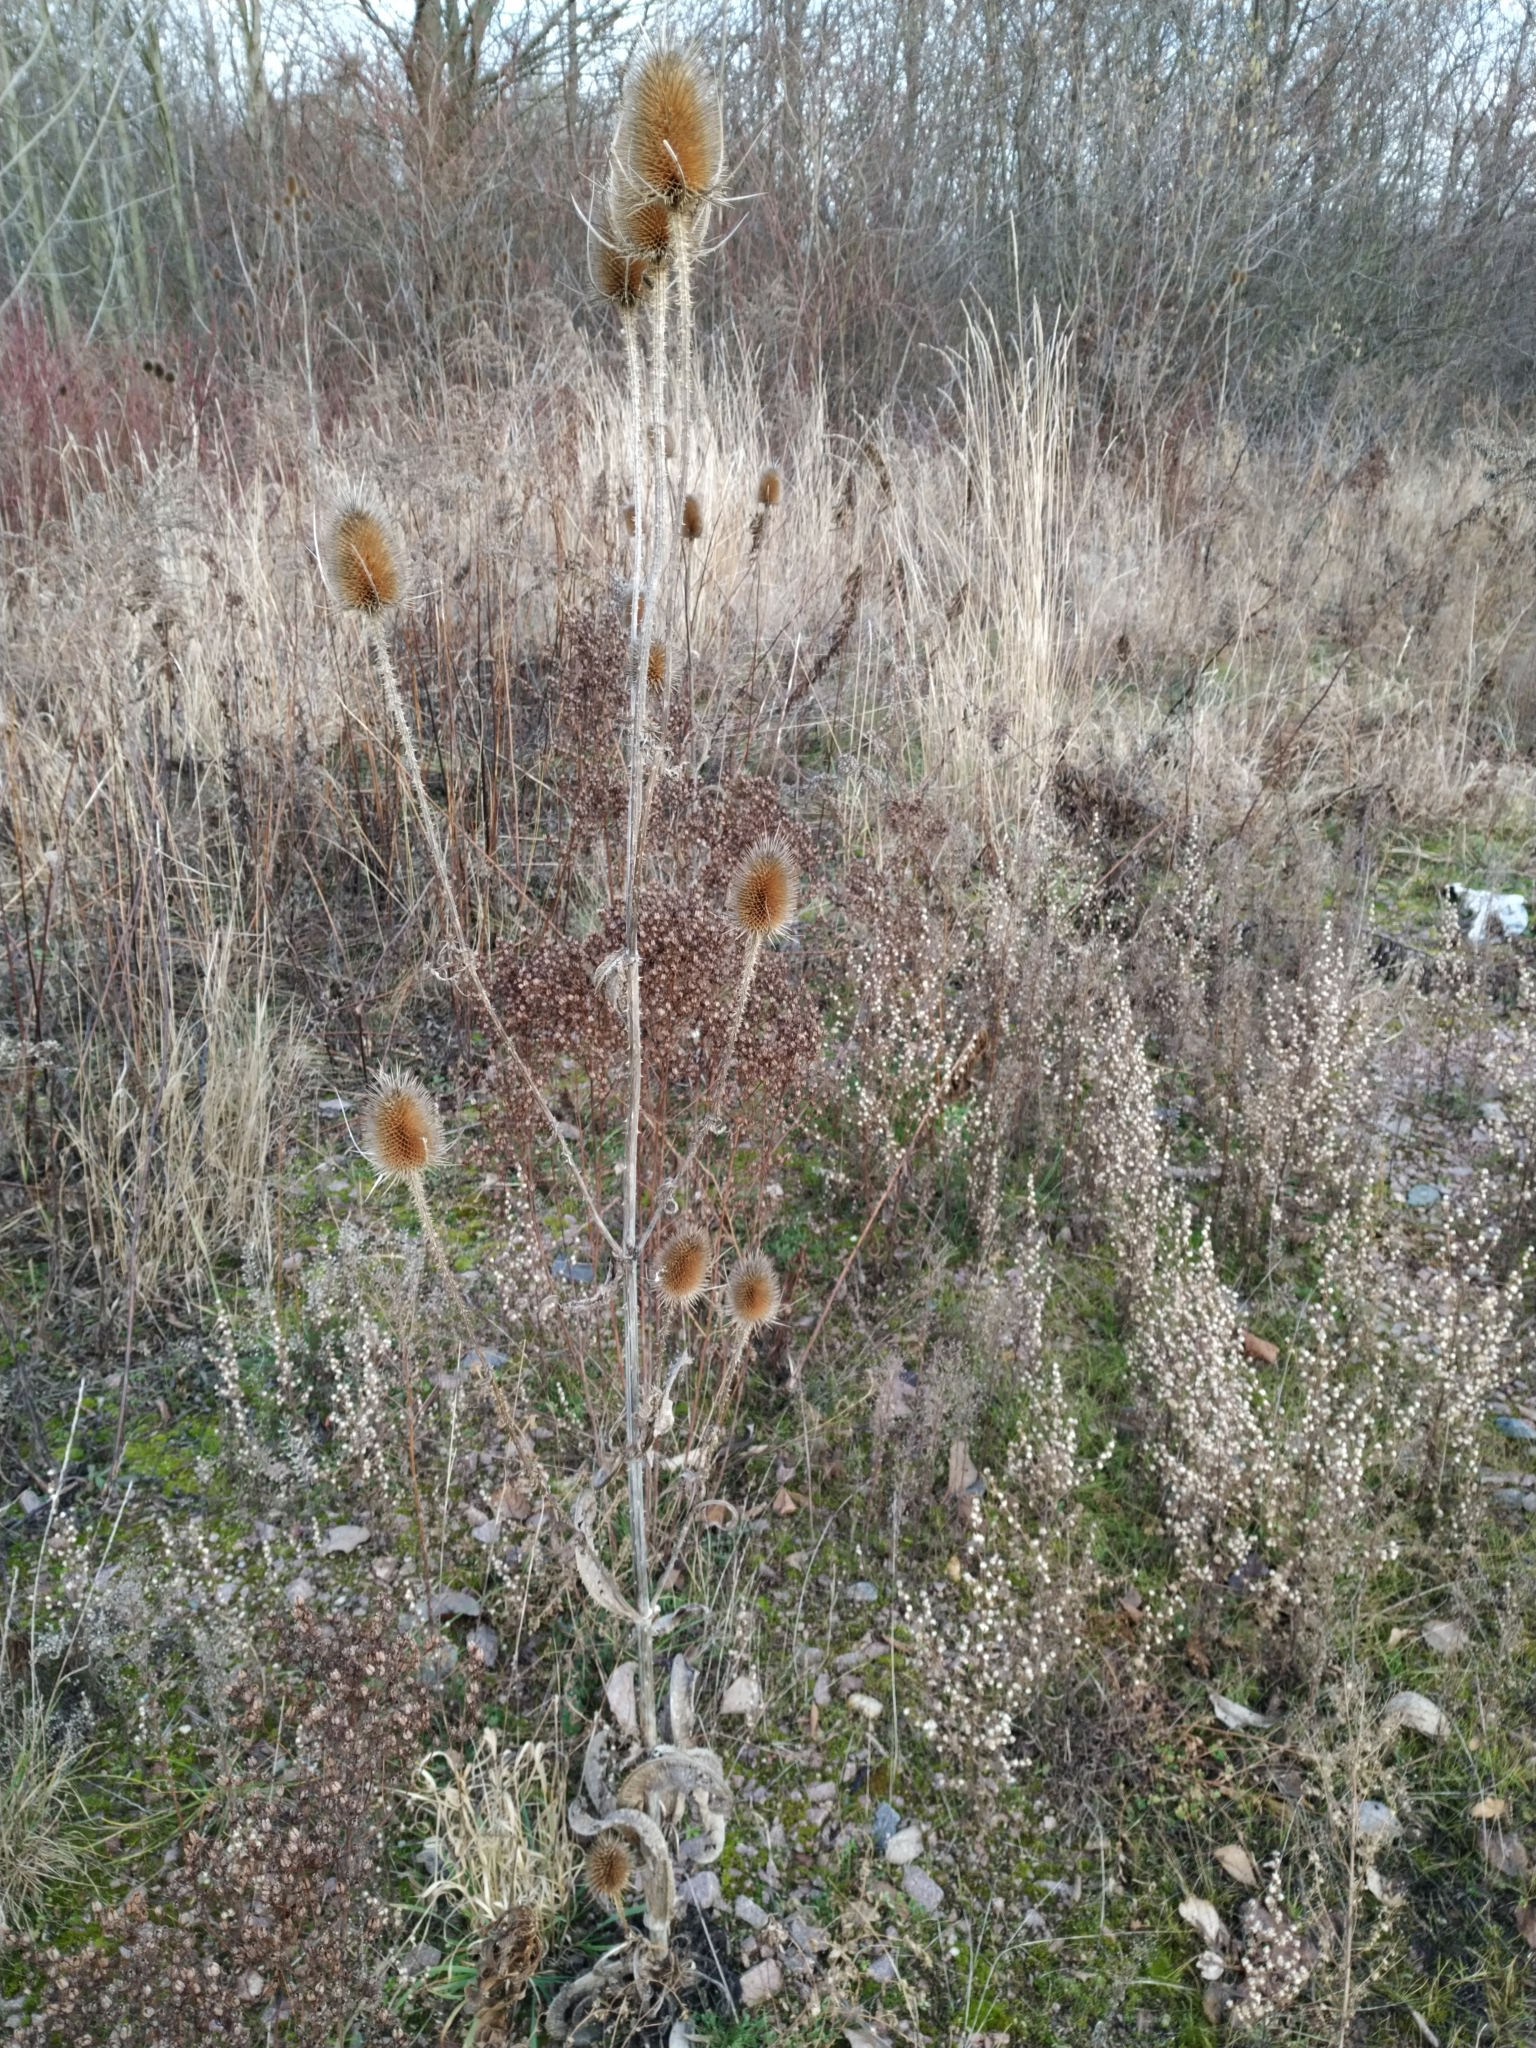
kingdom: Plantae
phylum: Tracheophyta
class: Magnoliopsida
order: Dipsacales
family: Caprifoliaceae
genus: Dipsacus
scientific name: Dipsacus fullonum
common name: Teasel
